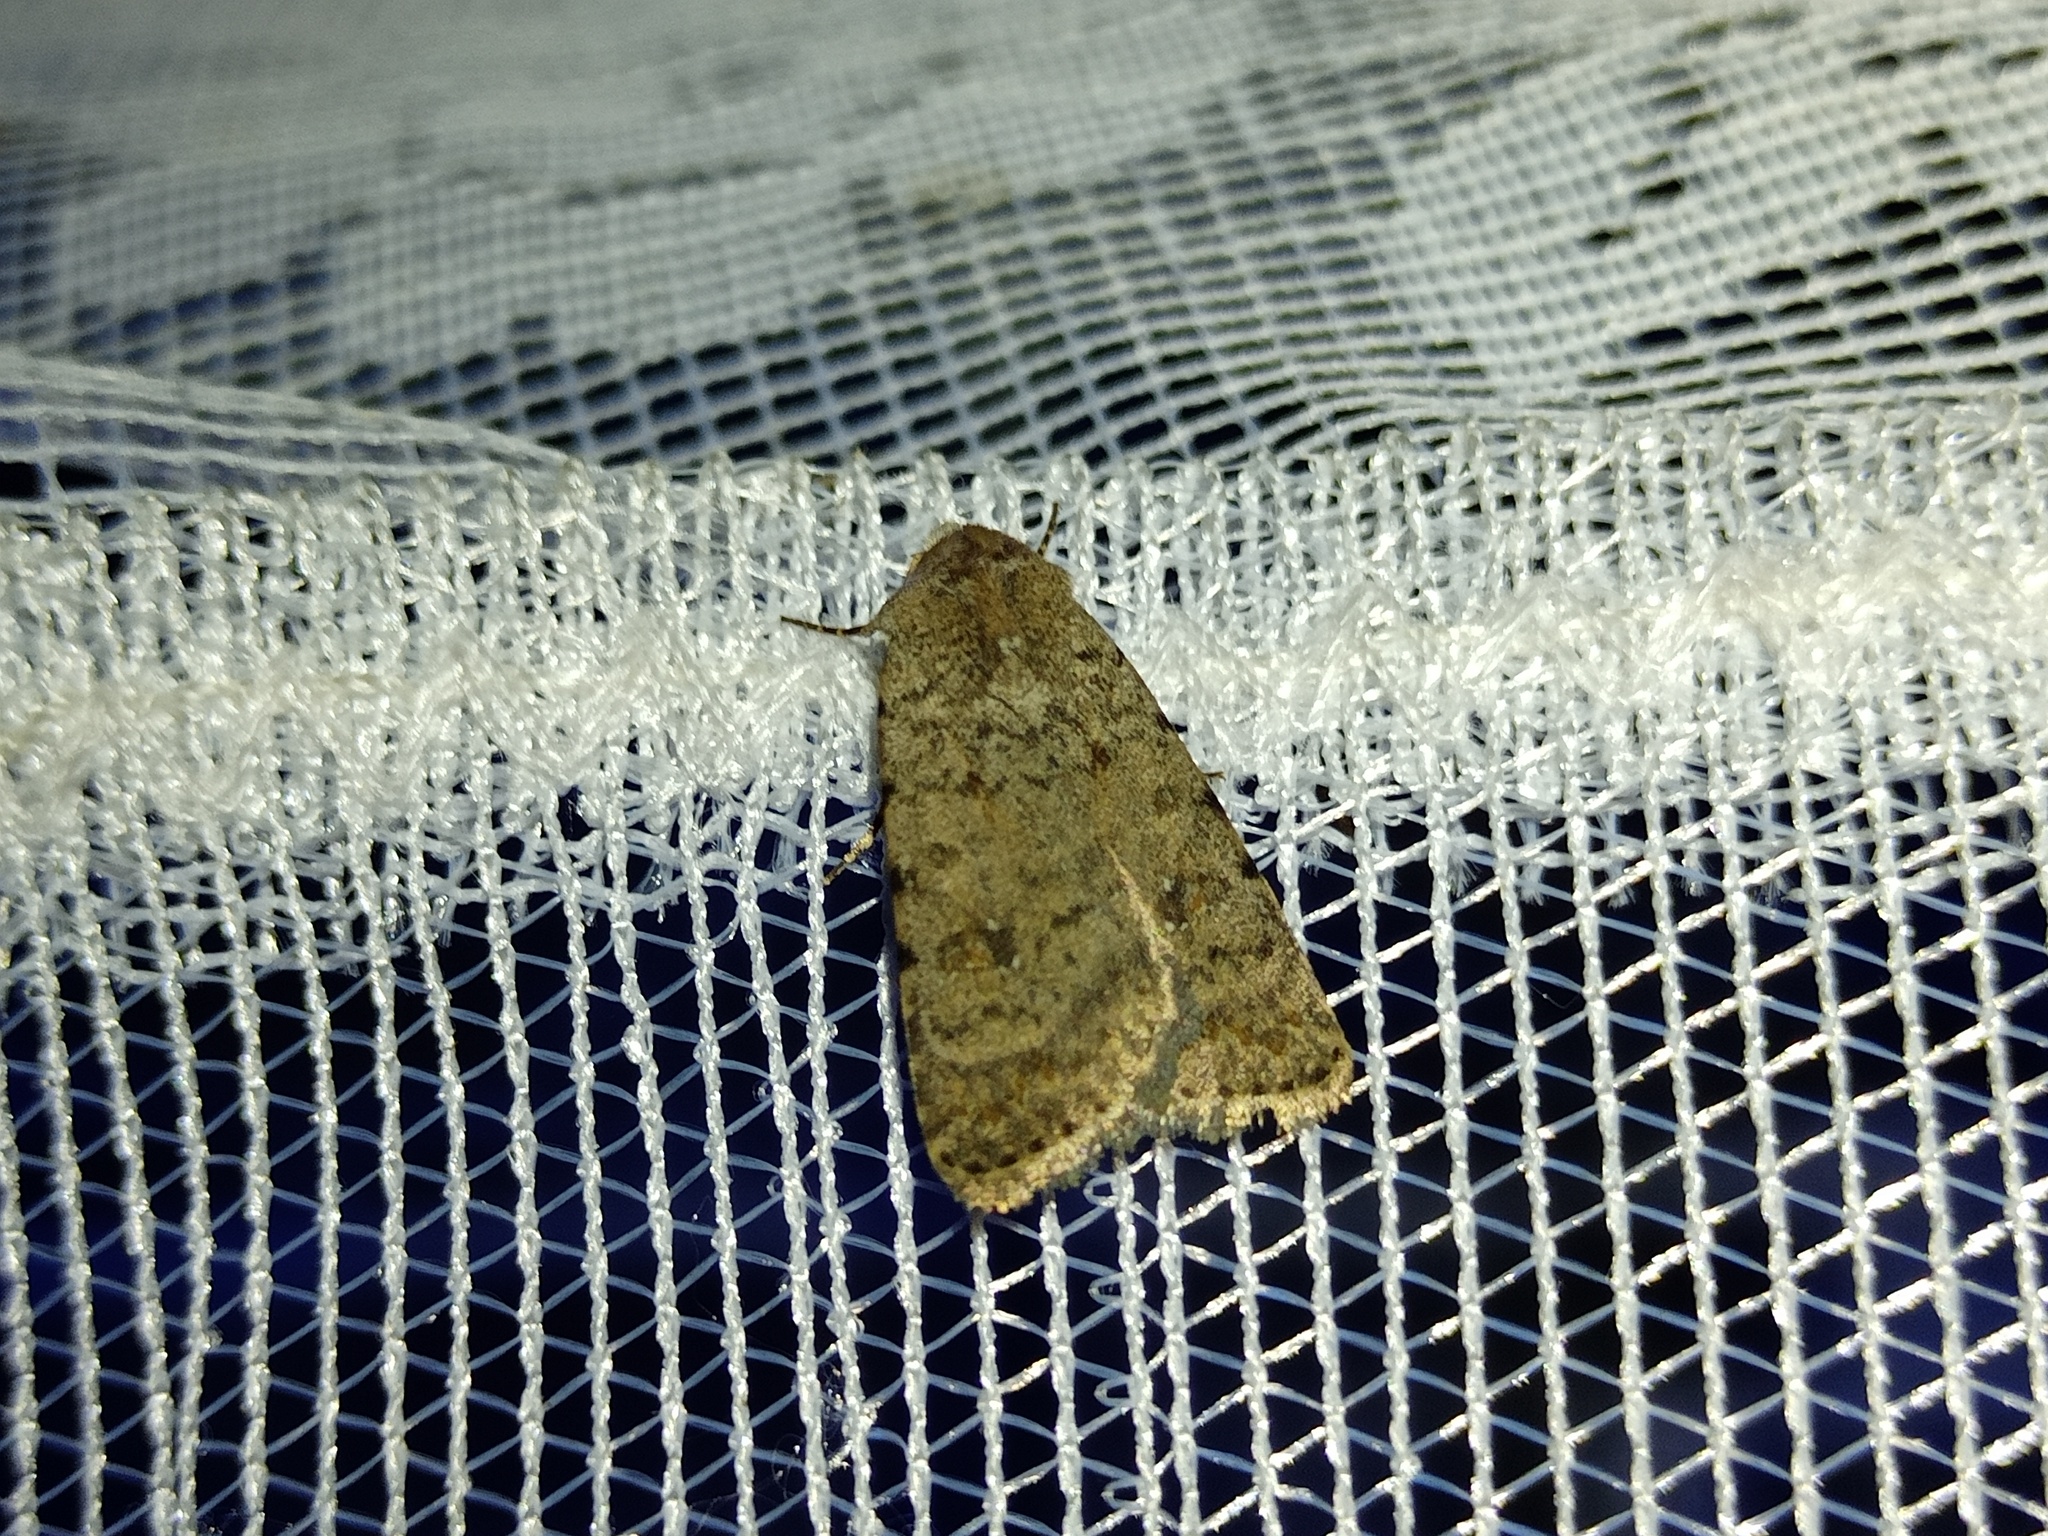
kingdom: Animalia
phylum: Arthropoda
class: Insecta
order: Lepidoptera
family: Noctuidae
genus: Caradrina
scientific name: Caradrina clavipalpis
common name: Pale mottled willow
